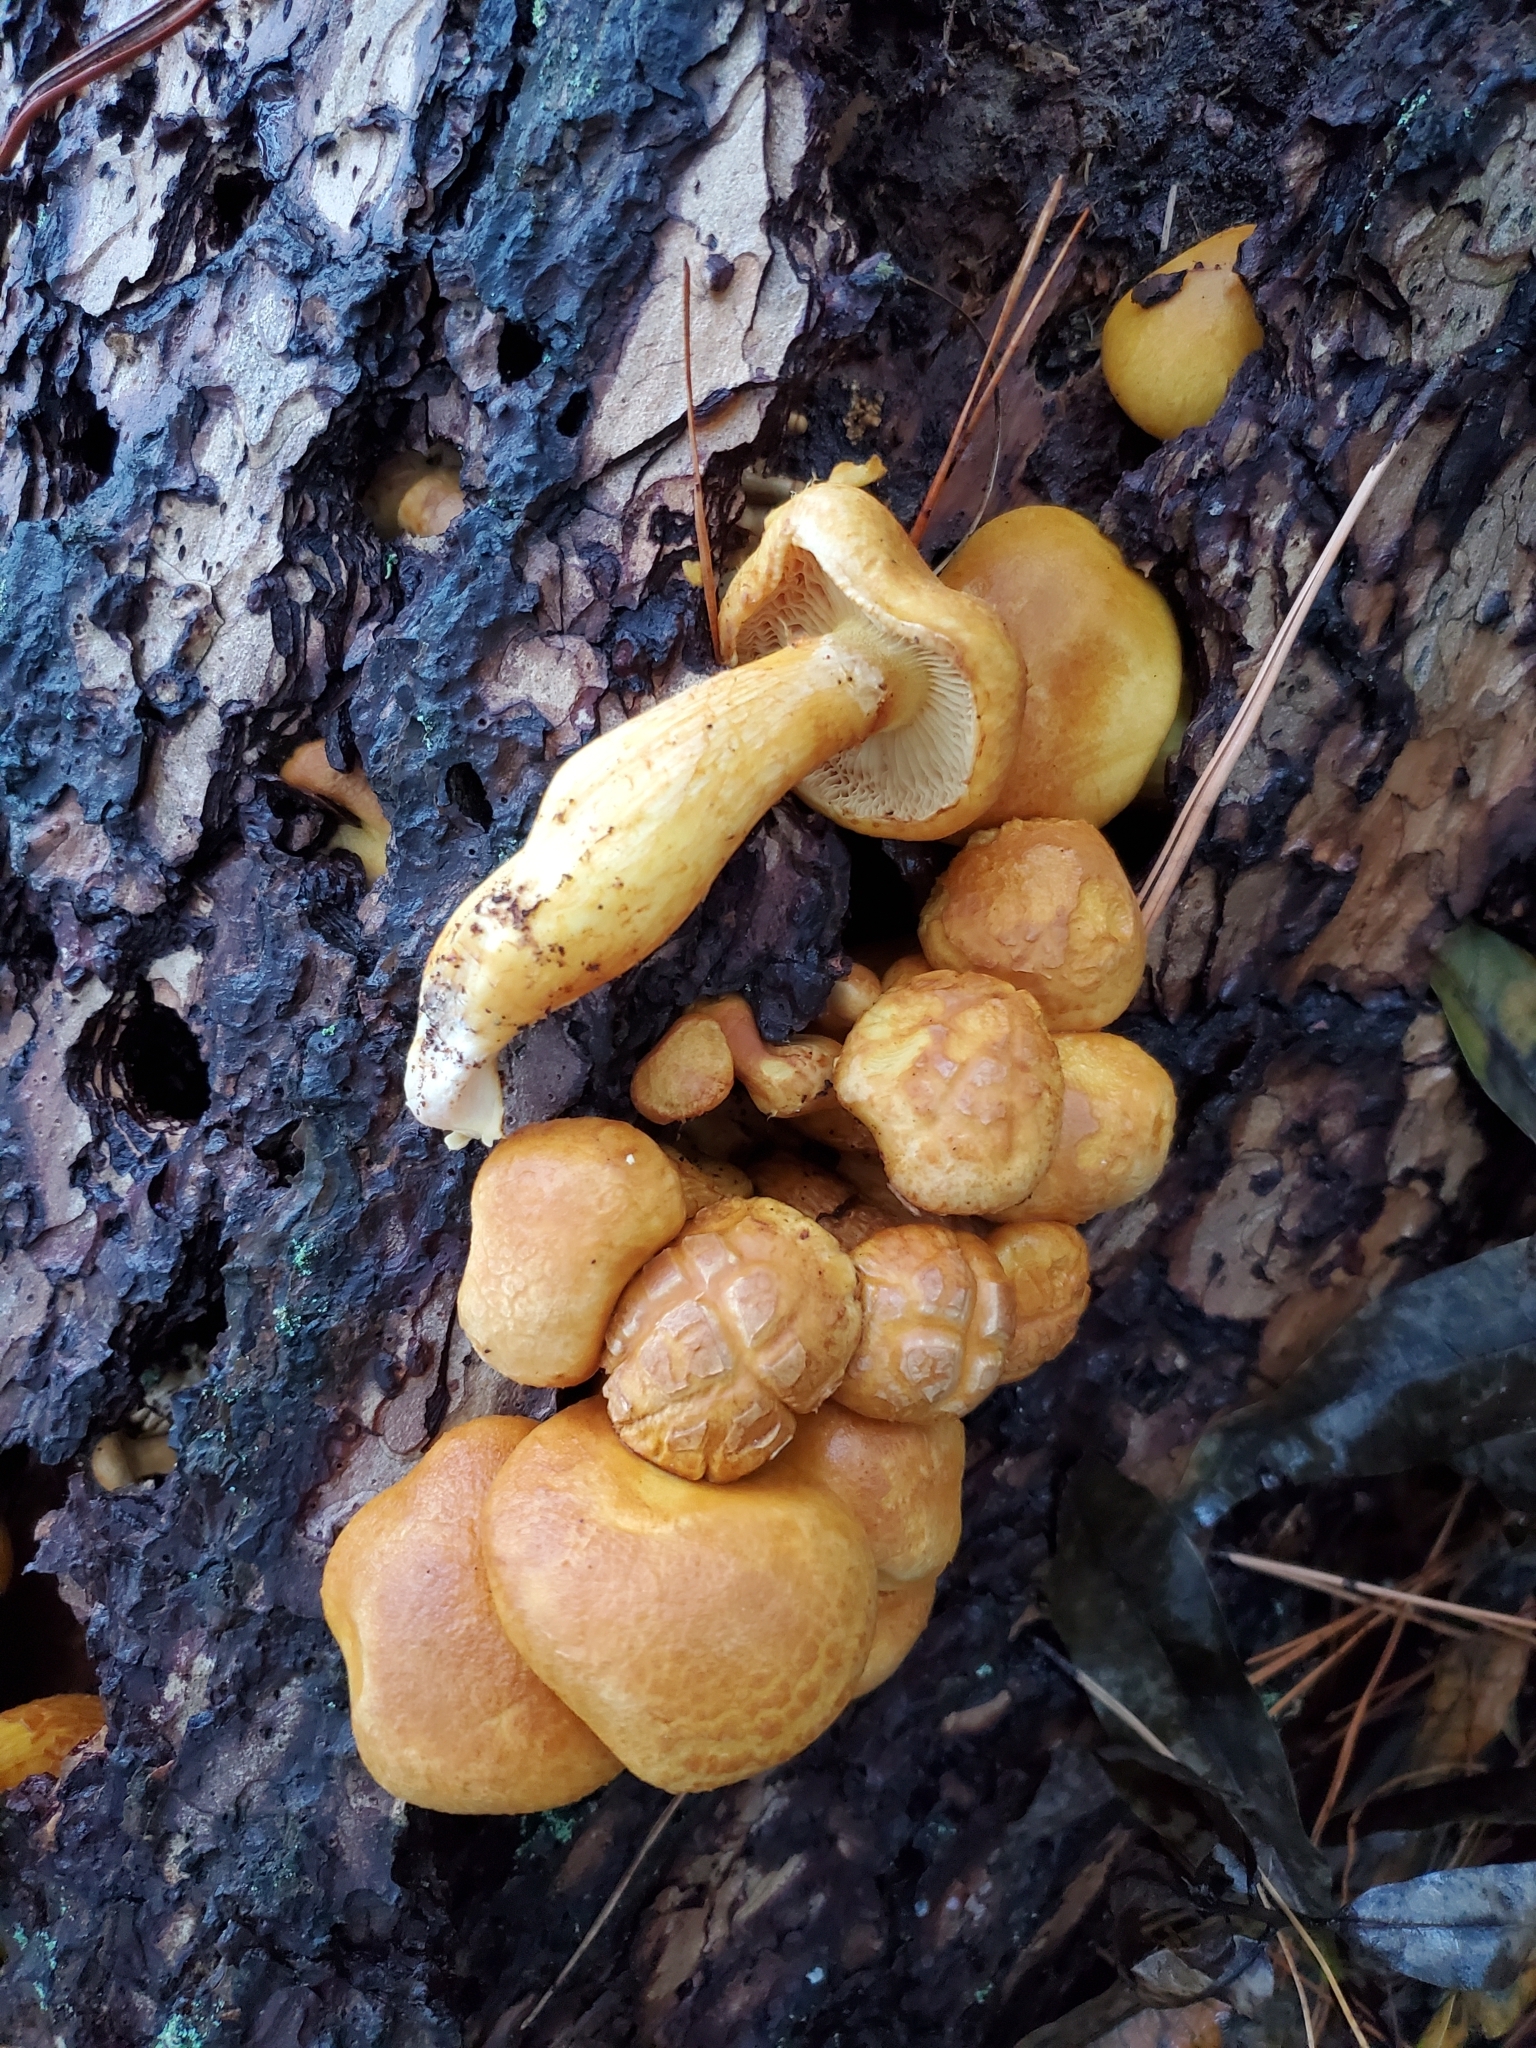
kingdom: Fungi
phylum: Basidiomycota
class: Agaricomycetes
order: Agaricales
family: Hymenogastraceae
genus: Gymnopilus
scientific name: Gymnopilus ventricosus
